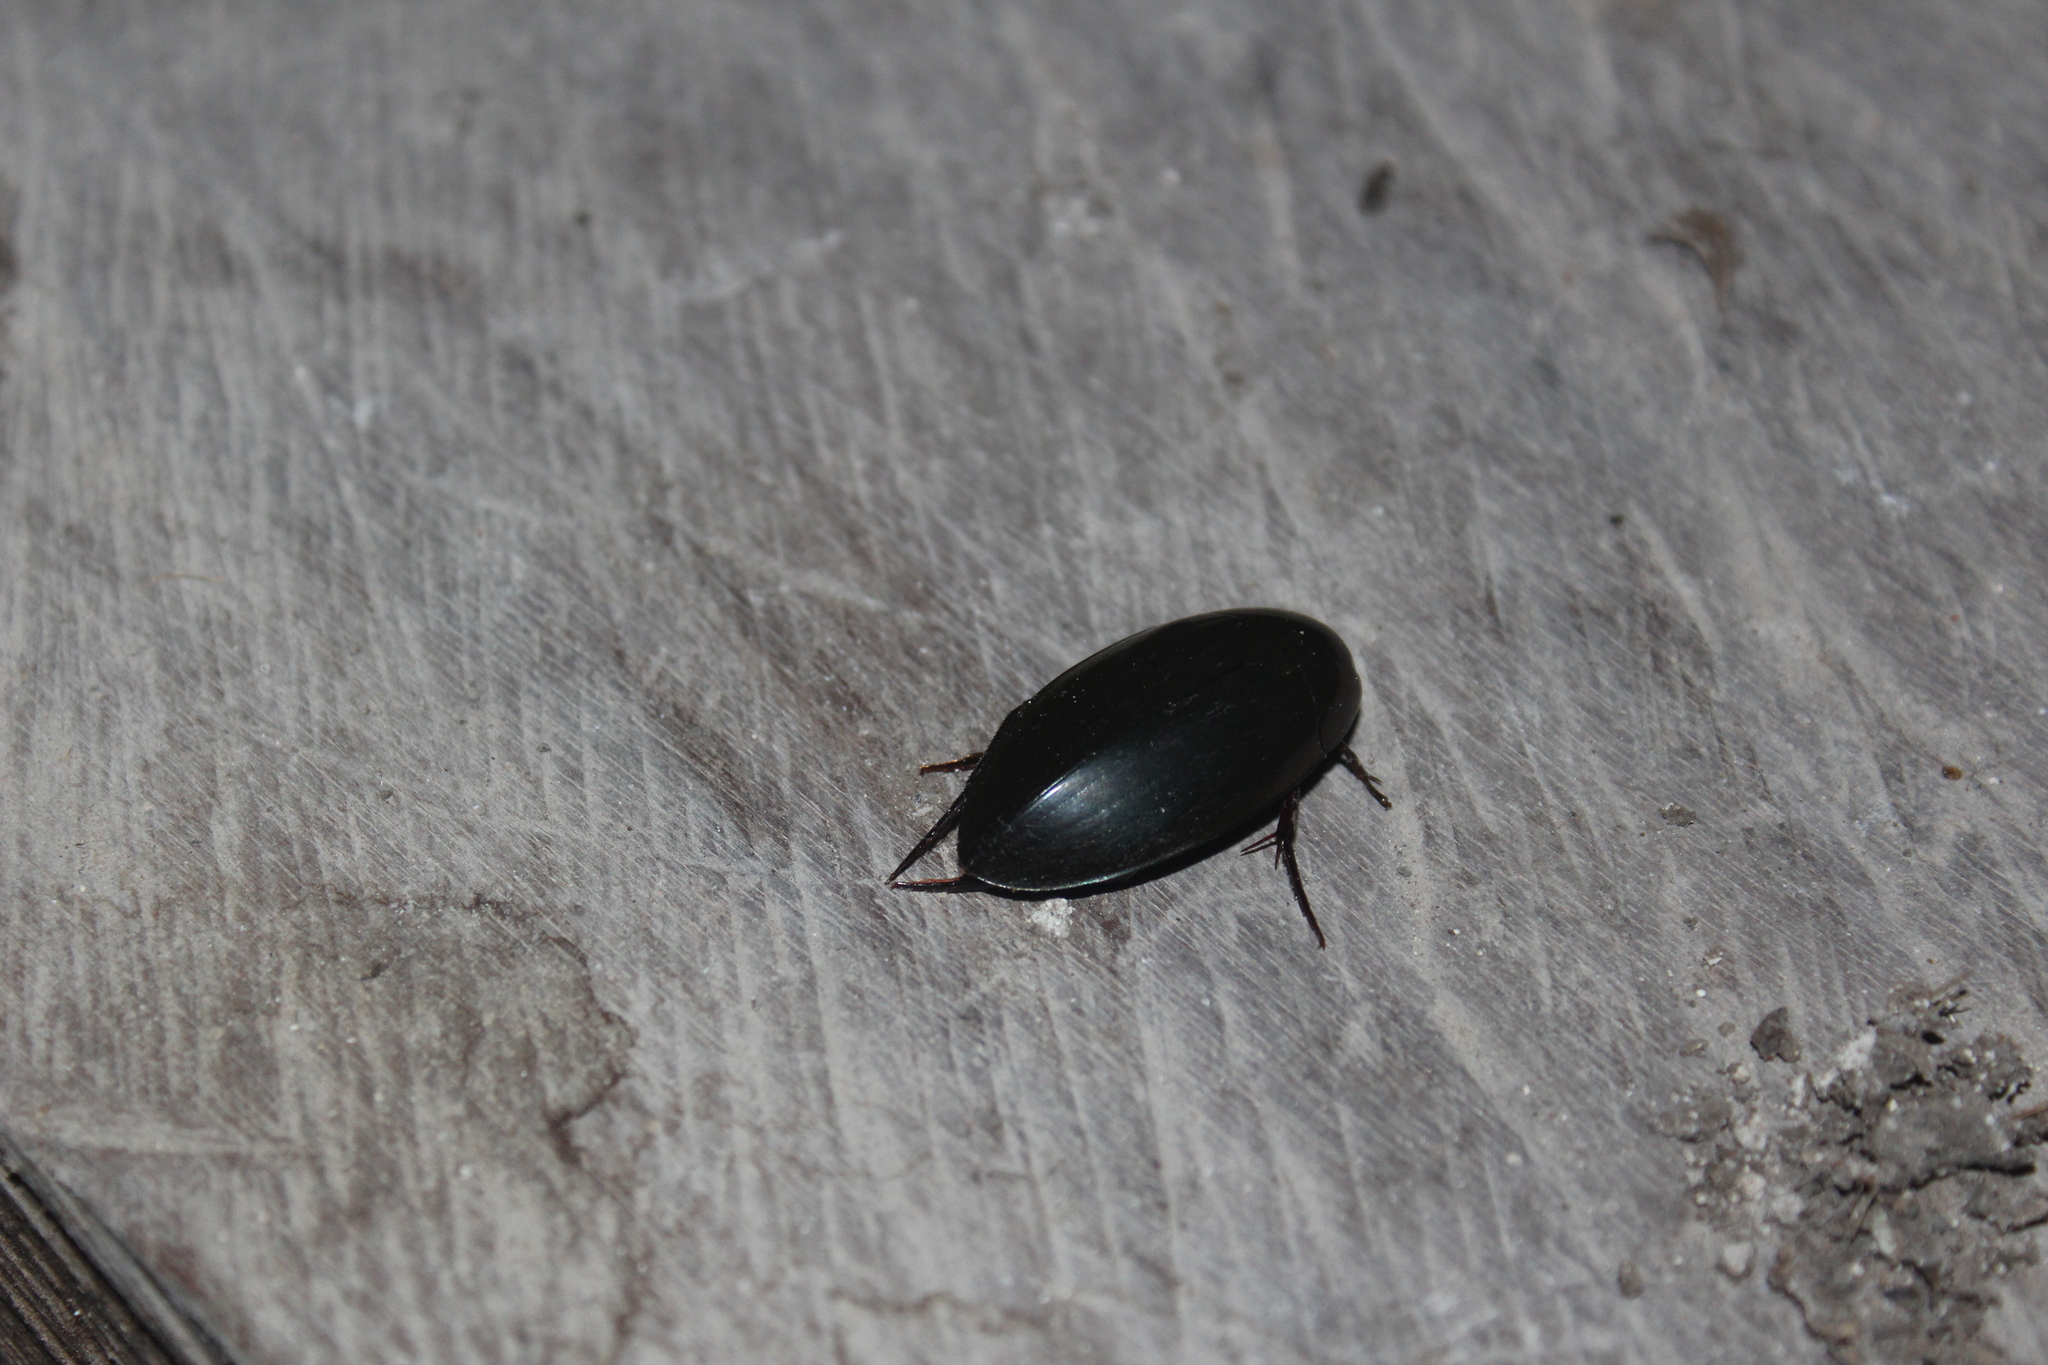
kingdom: Animalia
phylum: Arthropoda
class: Insecta
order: Coleoptera
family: Hydrophilidae
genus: Hydrophilus
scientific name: Hydrophilus
